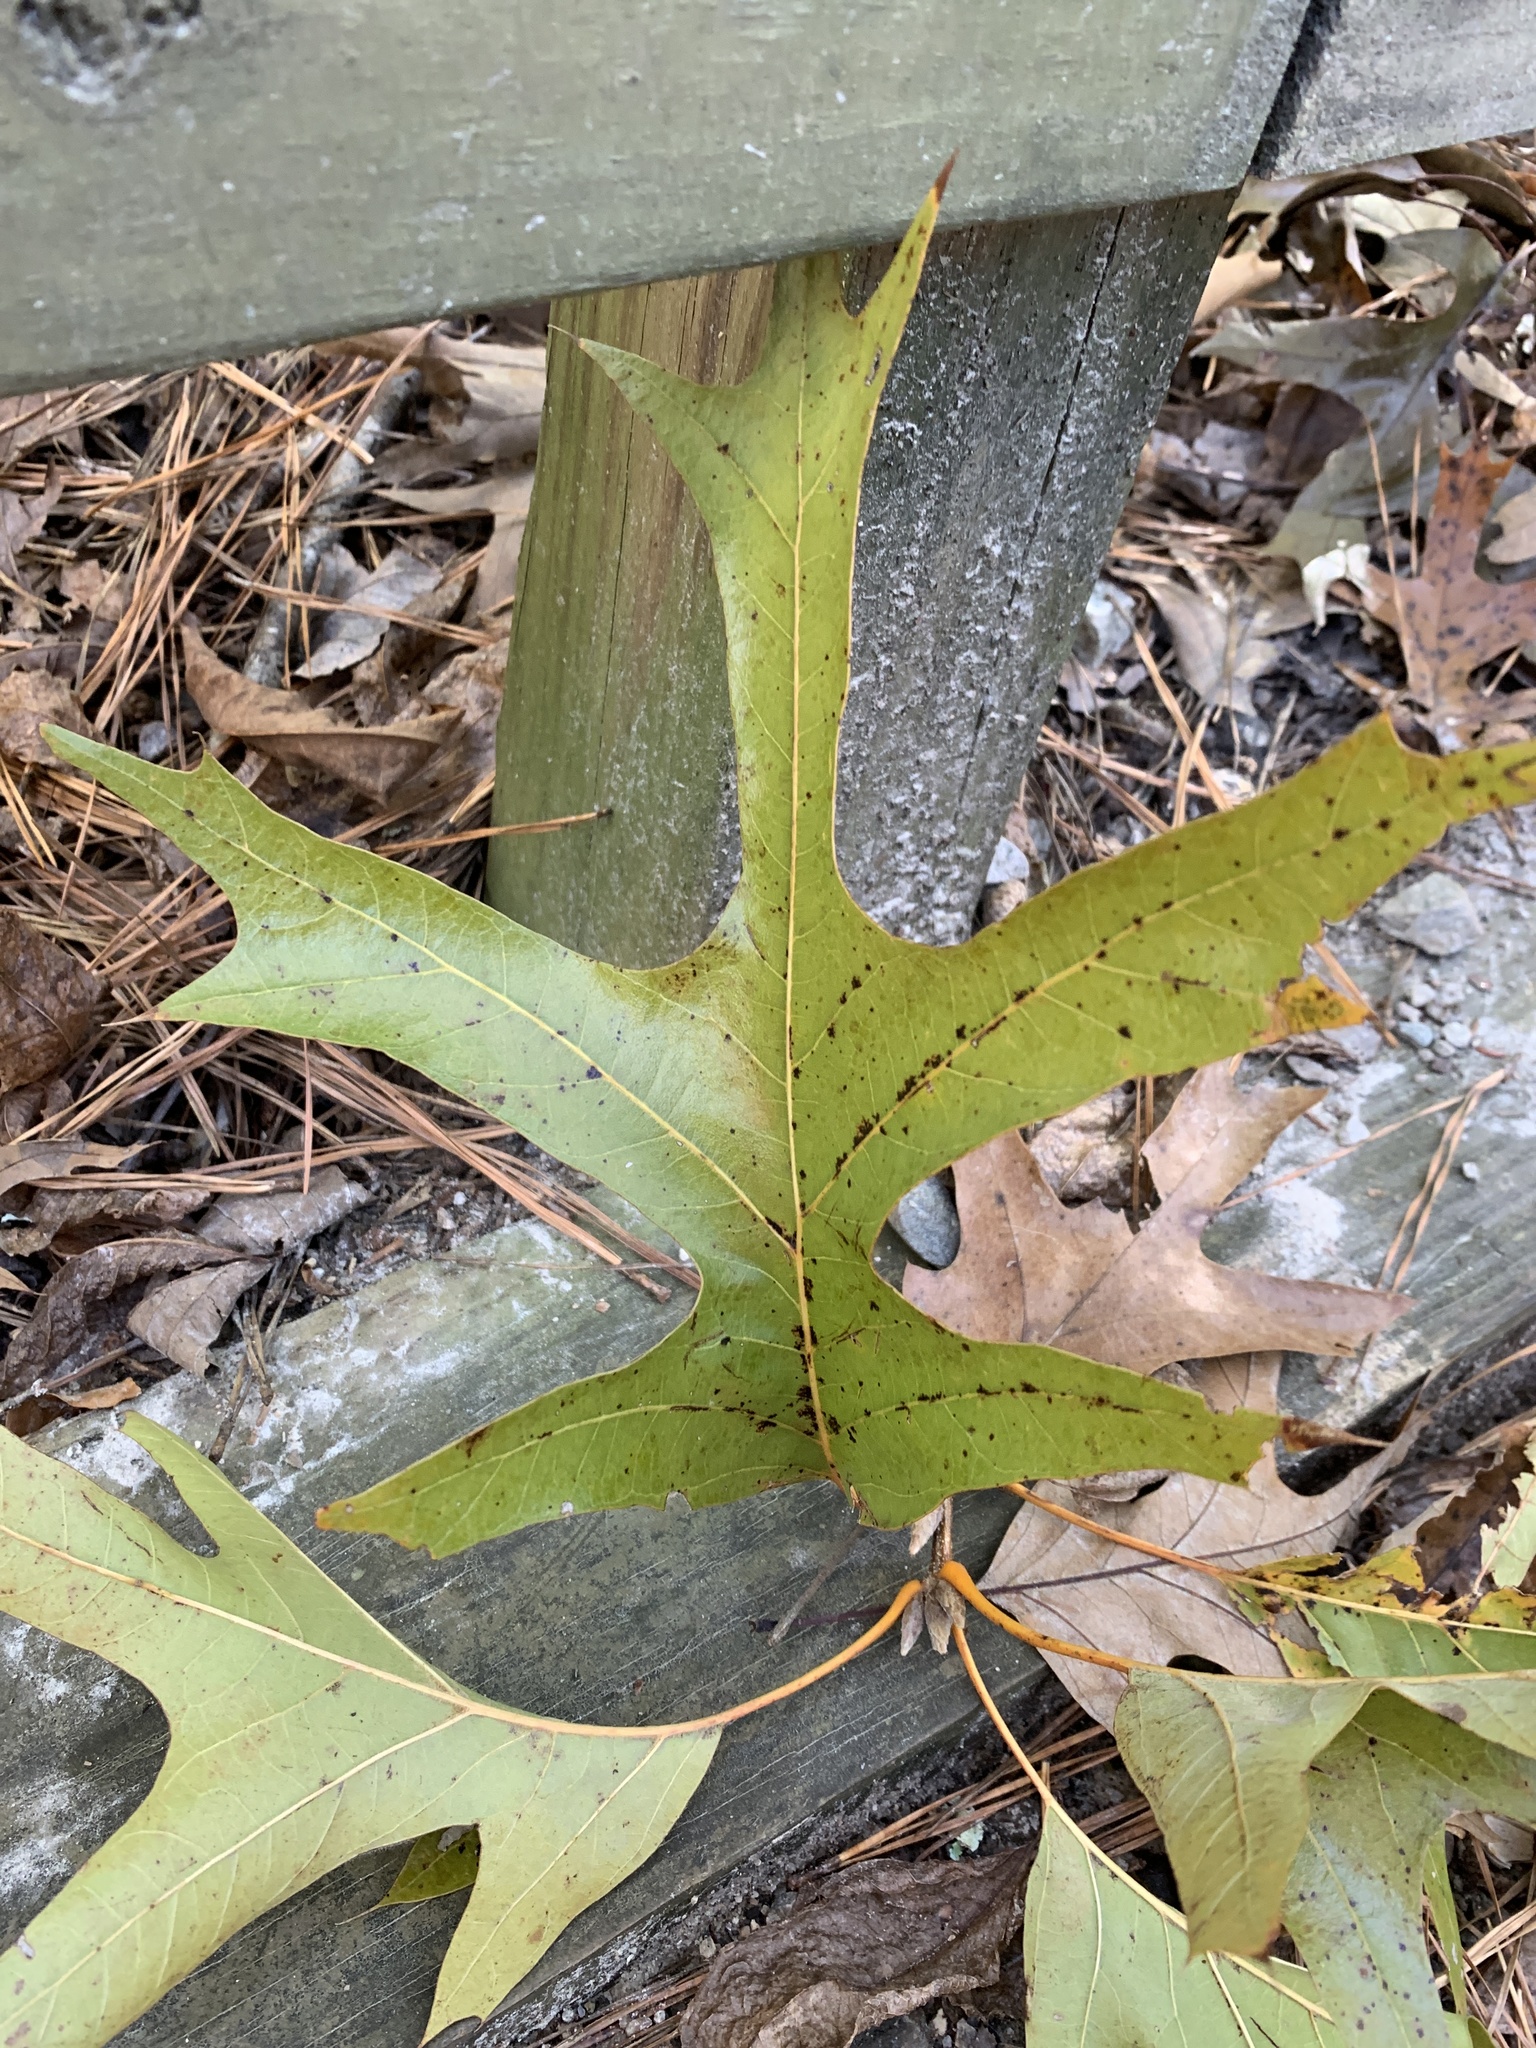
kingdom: Plantae
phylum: Tracheophyta
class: Magnoliopsida
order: Fagales
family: Fagaceae
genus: Quercus
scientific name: Quercus falcata
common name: Southern red oak
